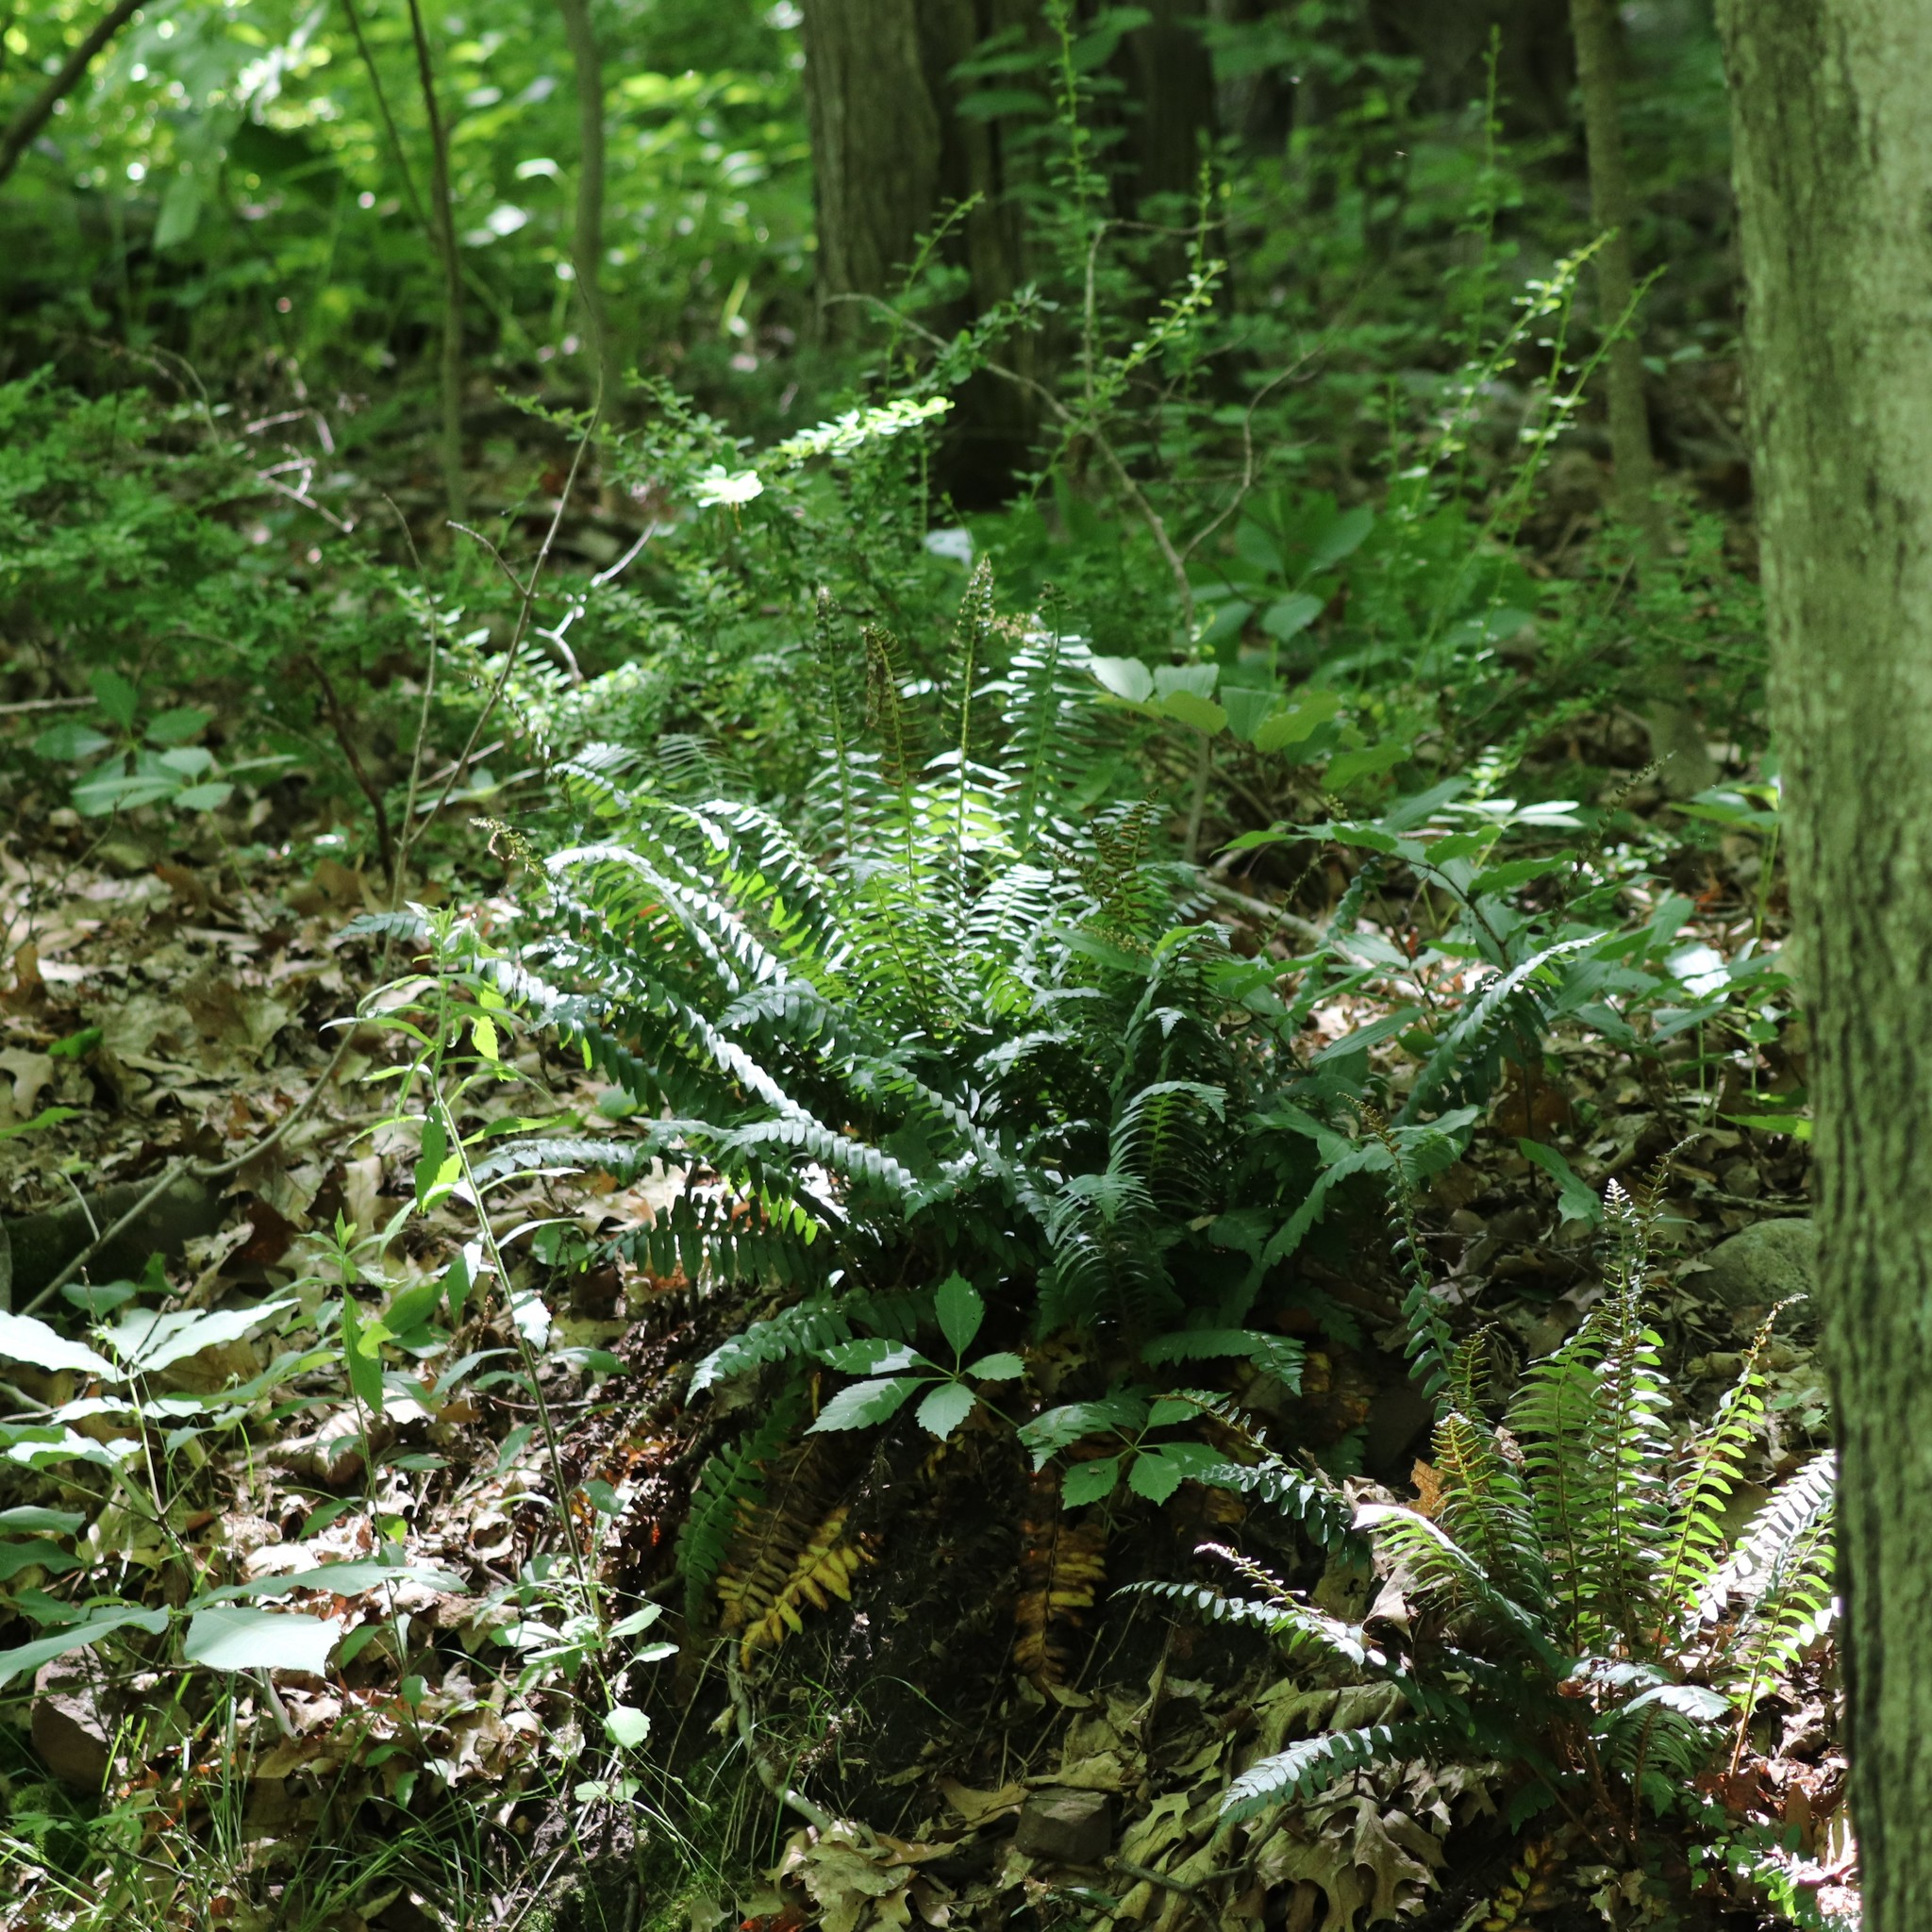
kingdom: Plantae
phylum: Tracheophyta
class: Polypodiopsida
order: Polypodiales
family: Dryopteridaceae
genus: Polystichum
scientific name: Polystichum acrostichoides
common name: Christmas fern
